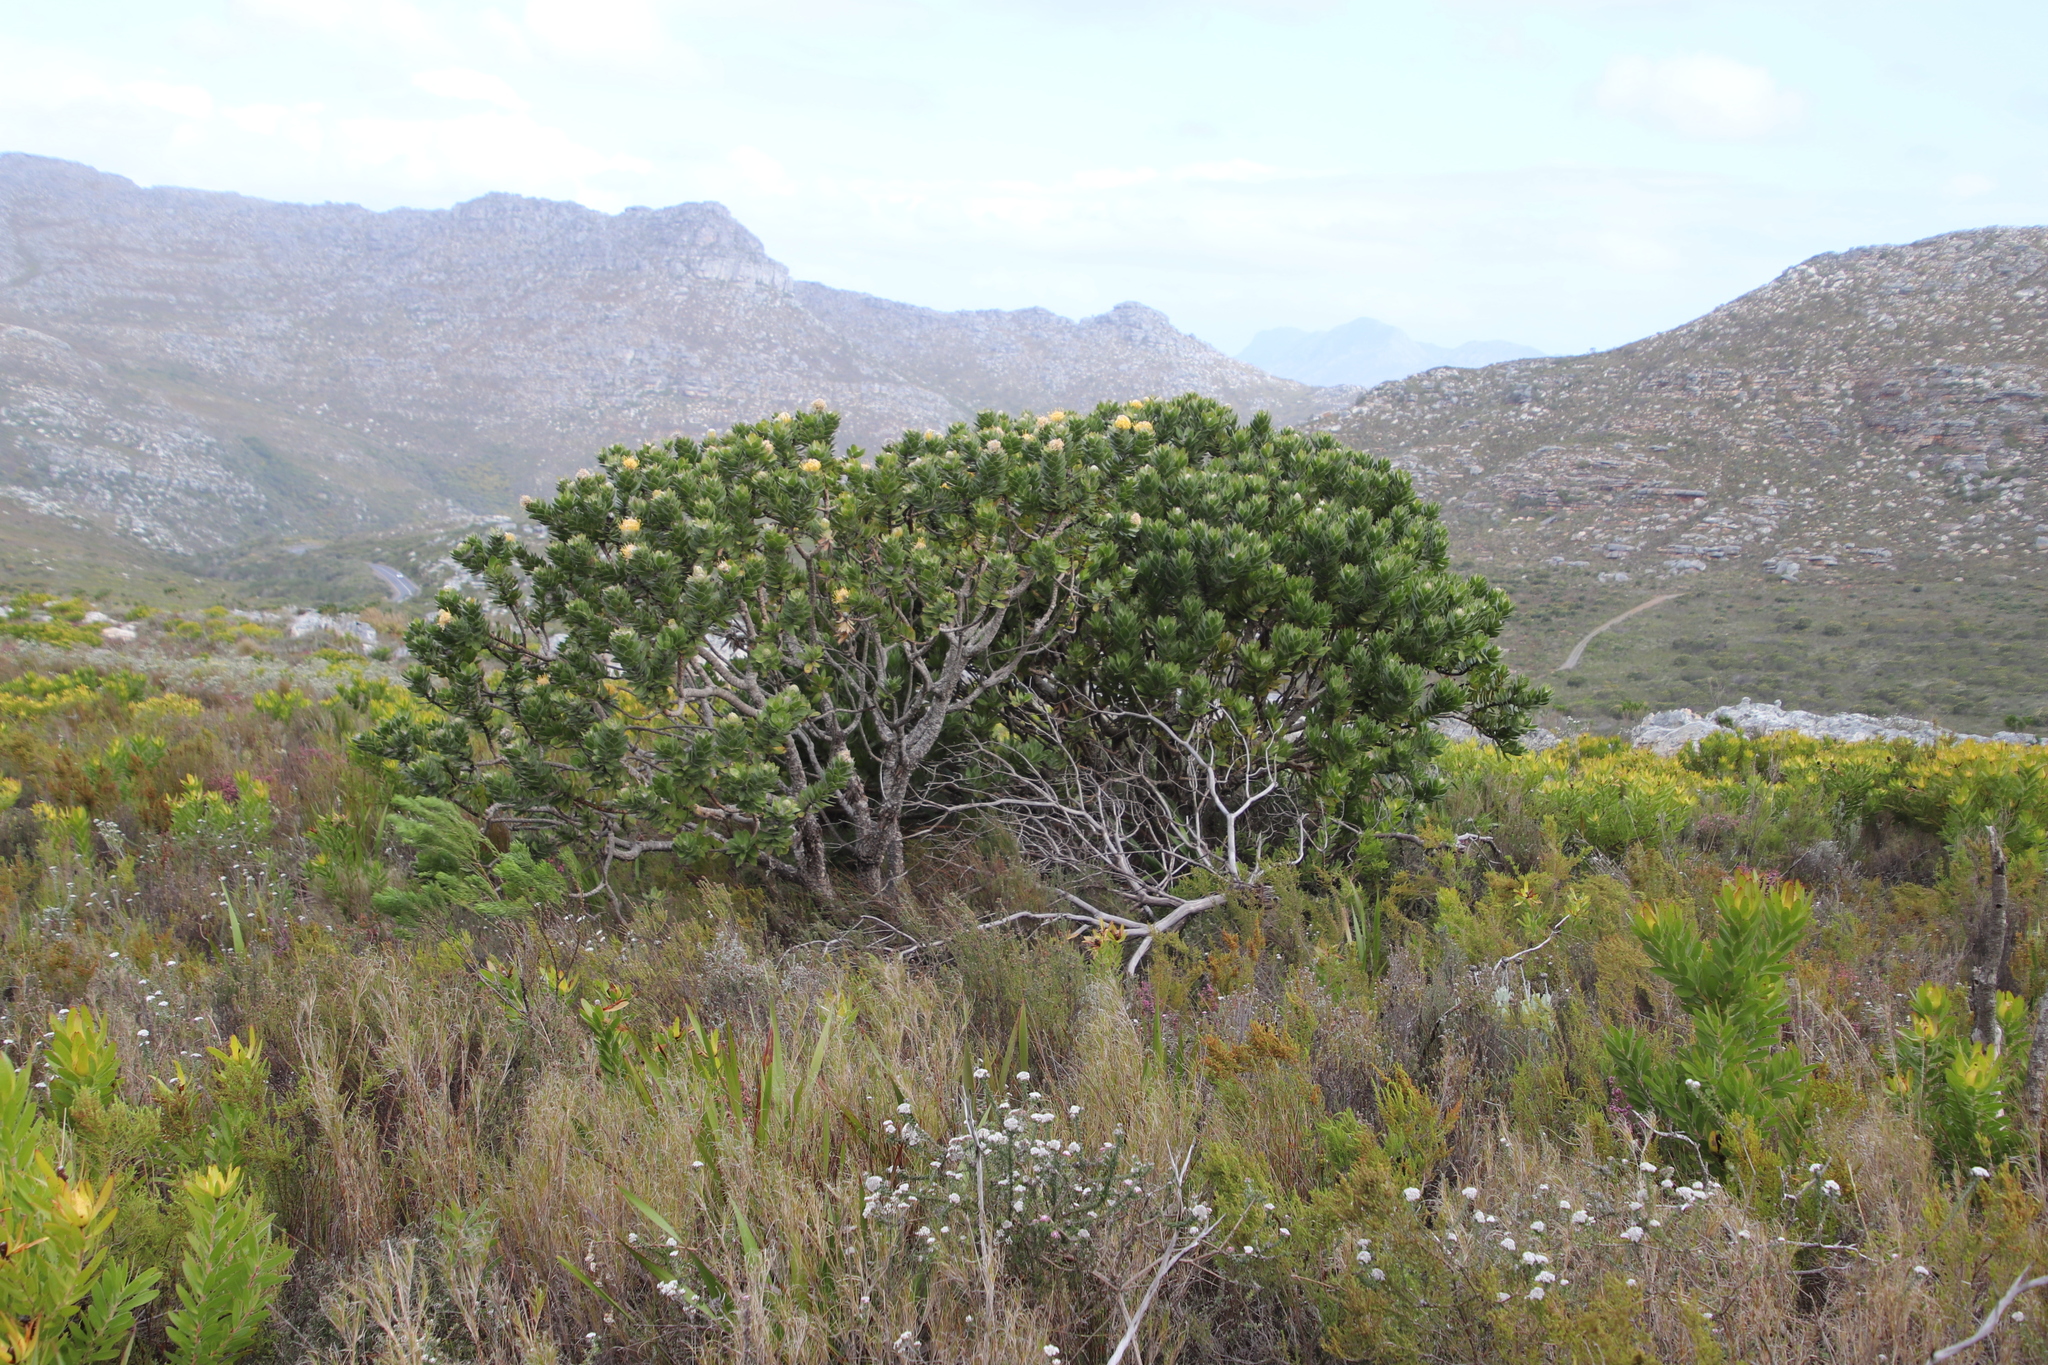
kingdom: Plantae
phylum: Tracheophyta
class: Magnoliopsida
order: Proteales
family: Proteaceae
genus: Leucospermum
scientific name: Leucospermum conocarpodendron
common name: Tree pincushion
